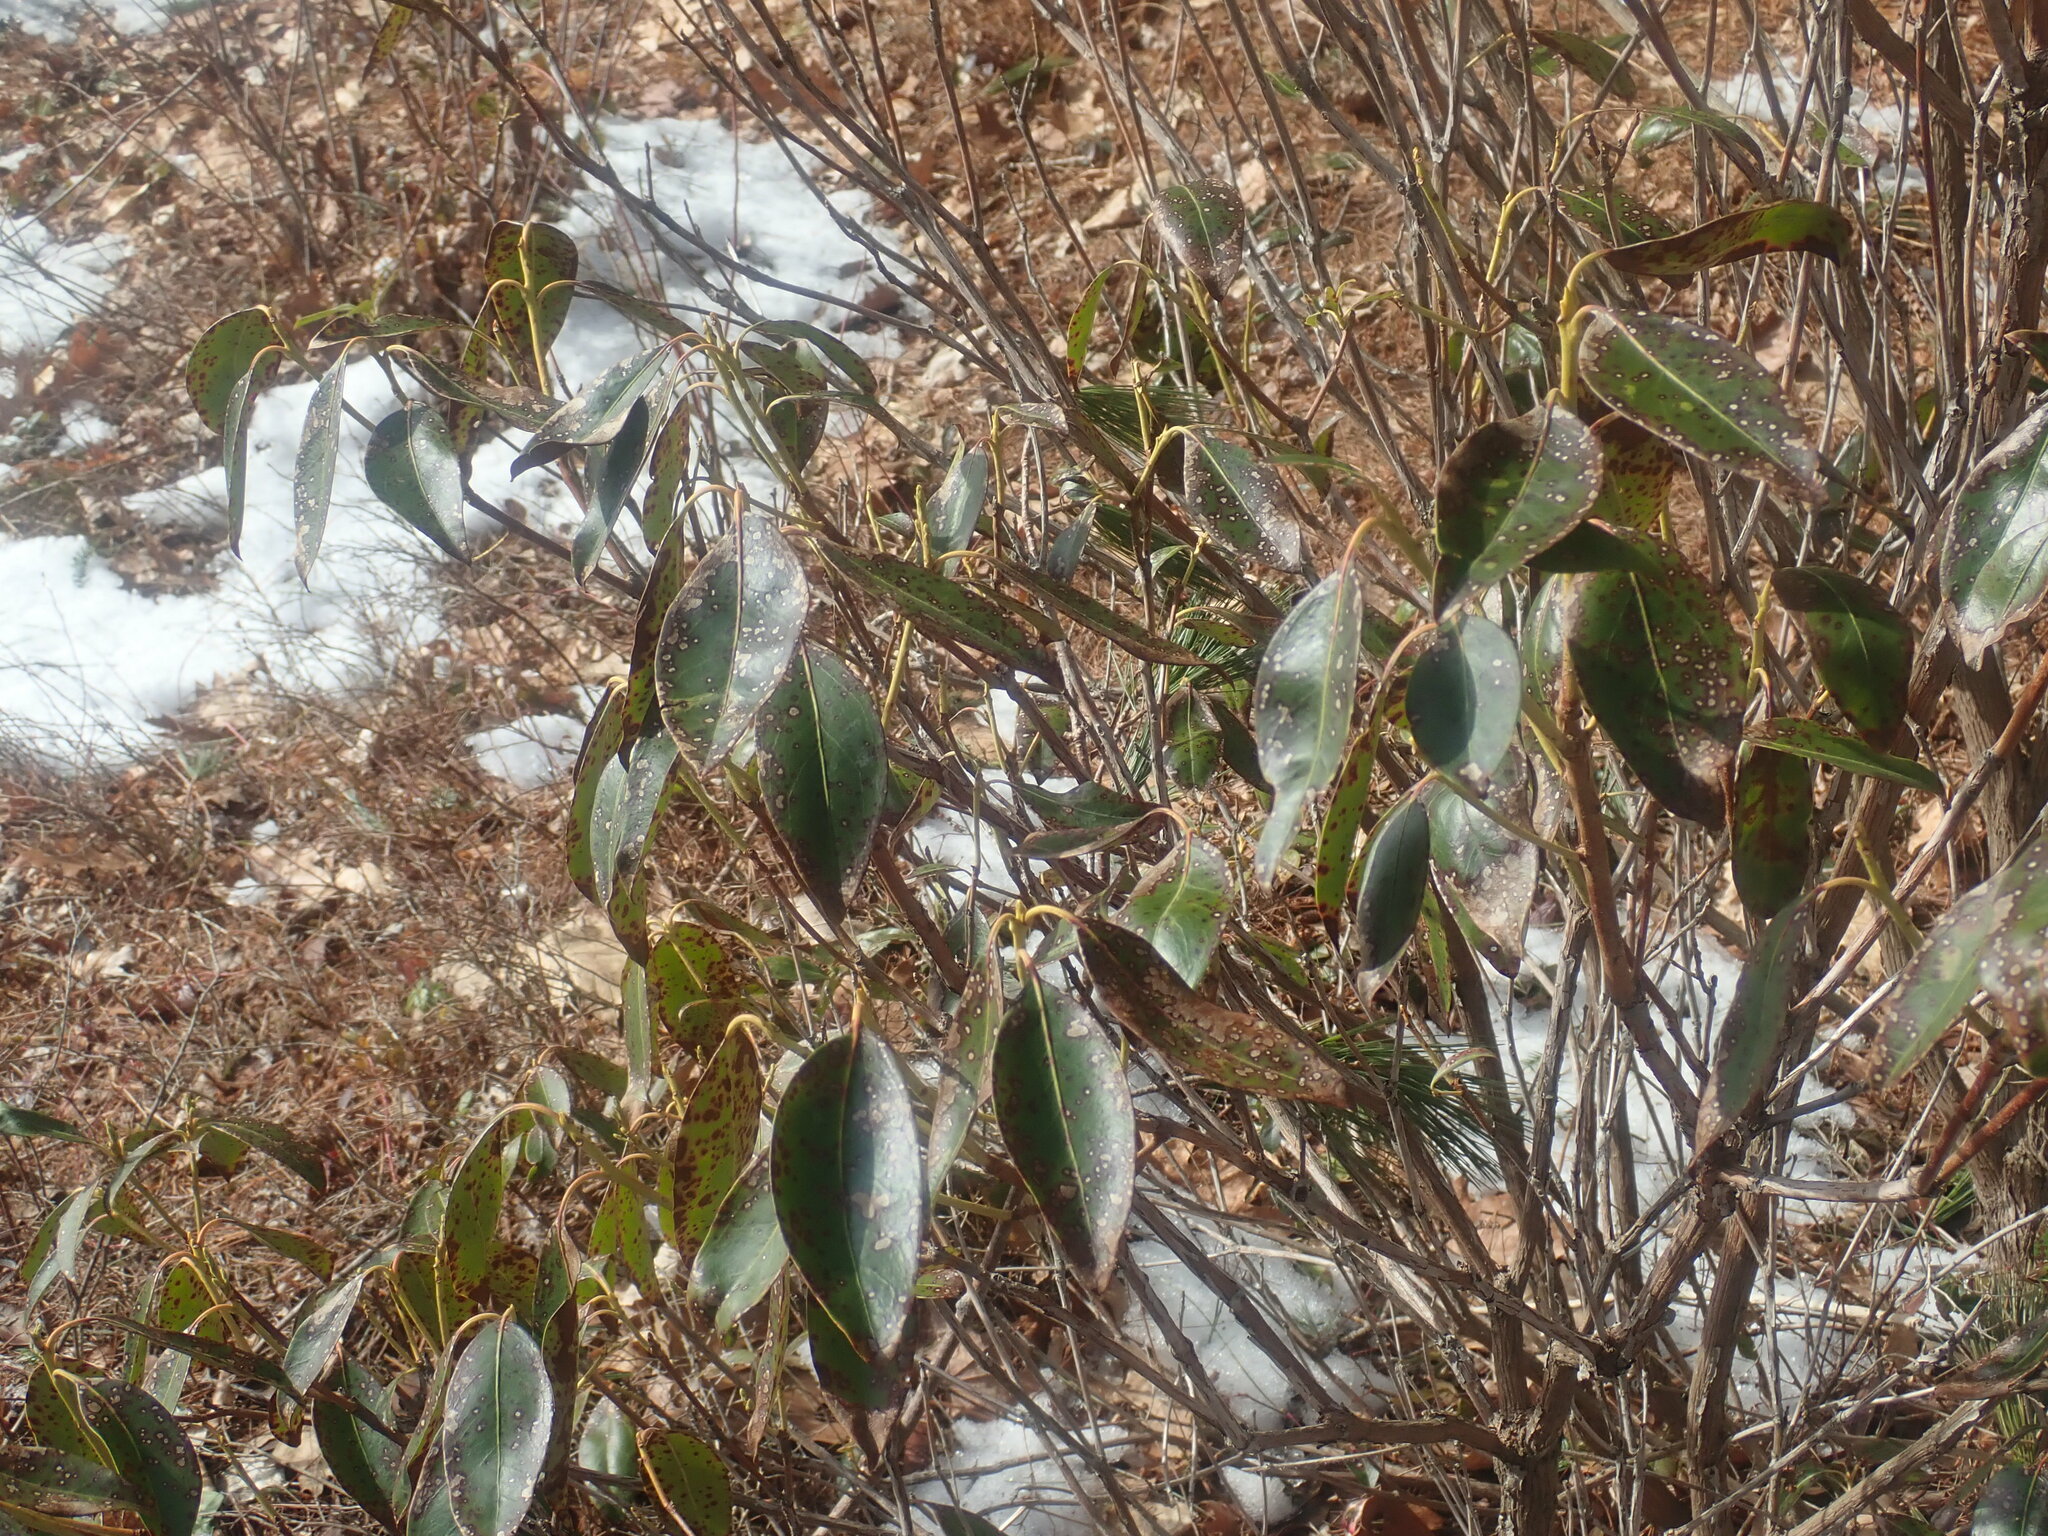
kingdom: Plantae
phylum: Tracheophyta
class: Magnoliopsida
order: Ericales
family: Ericaceae
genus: Kalmia
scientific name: Kalmia latifolia
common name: Mountain-laurel
